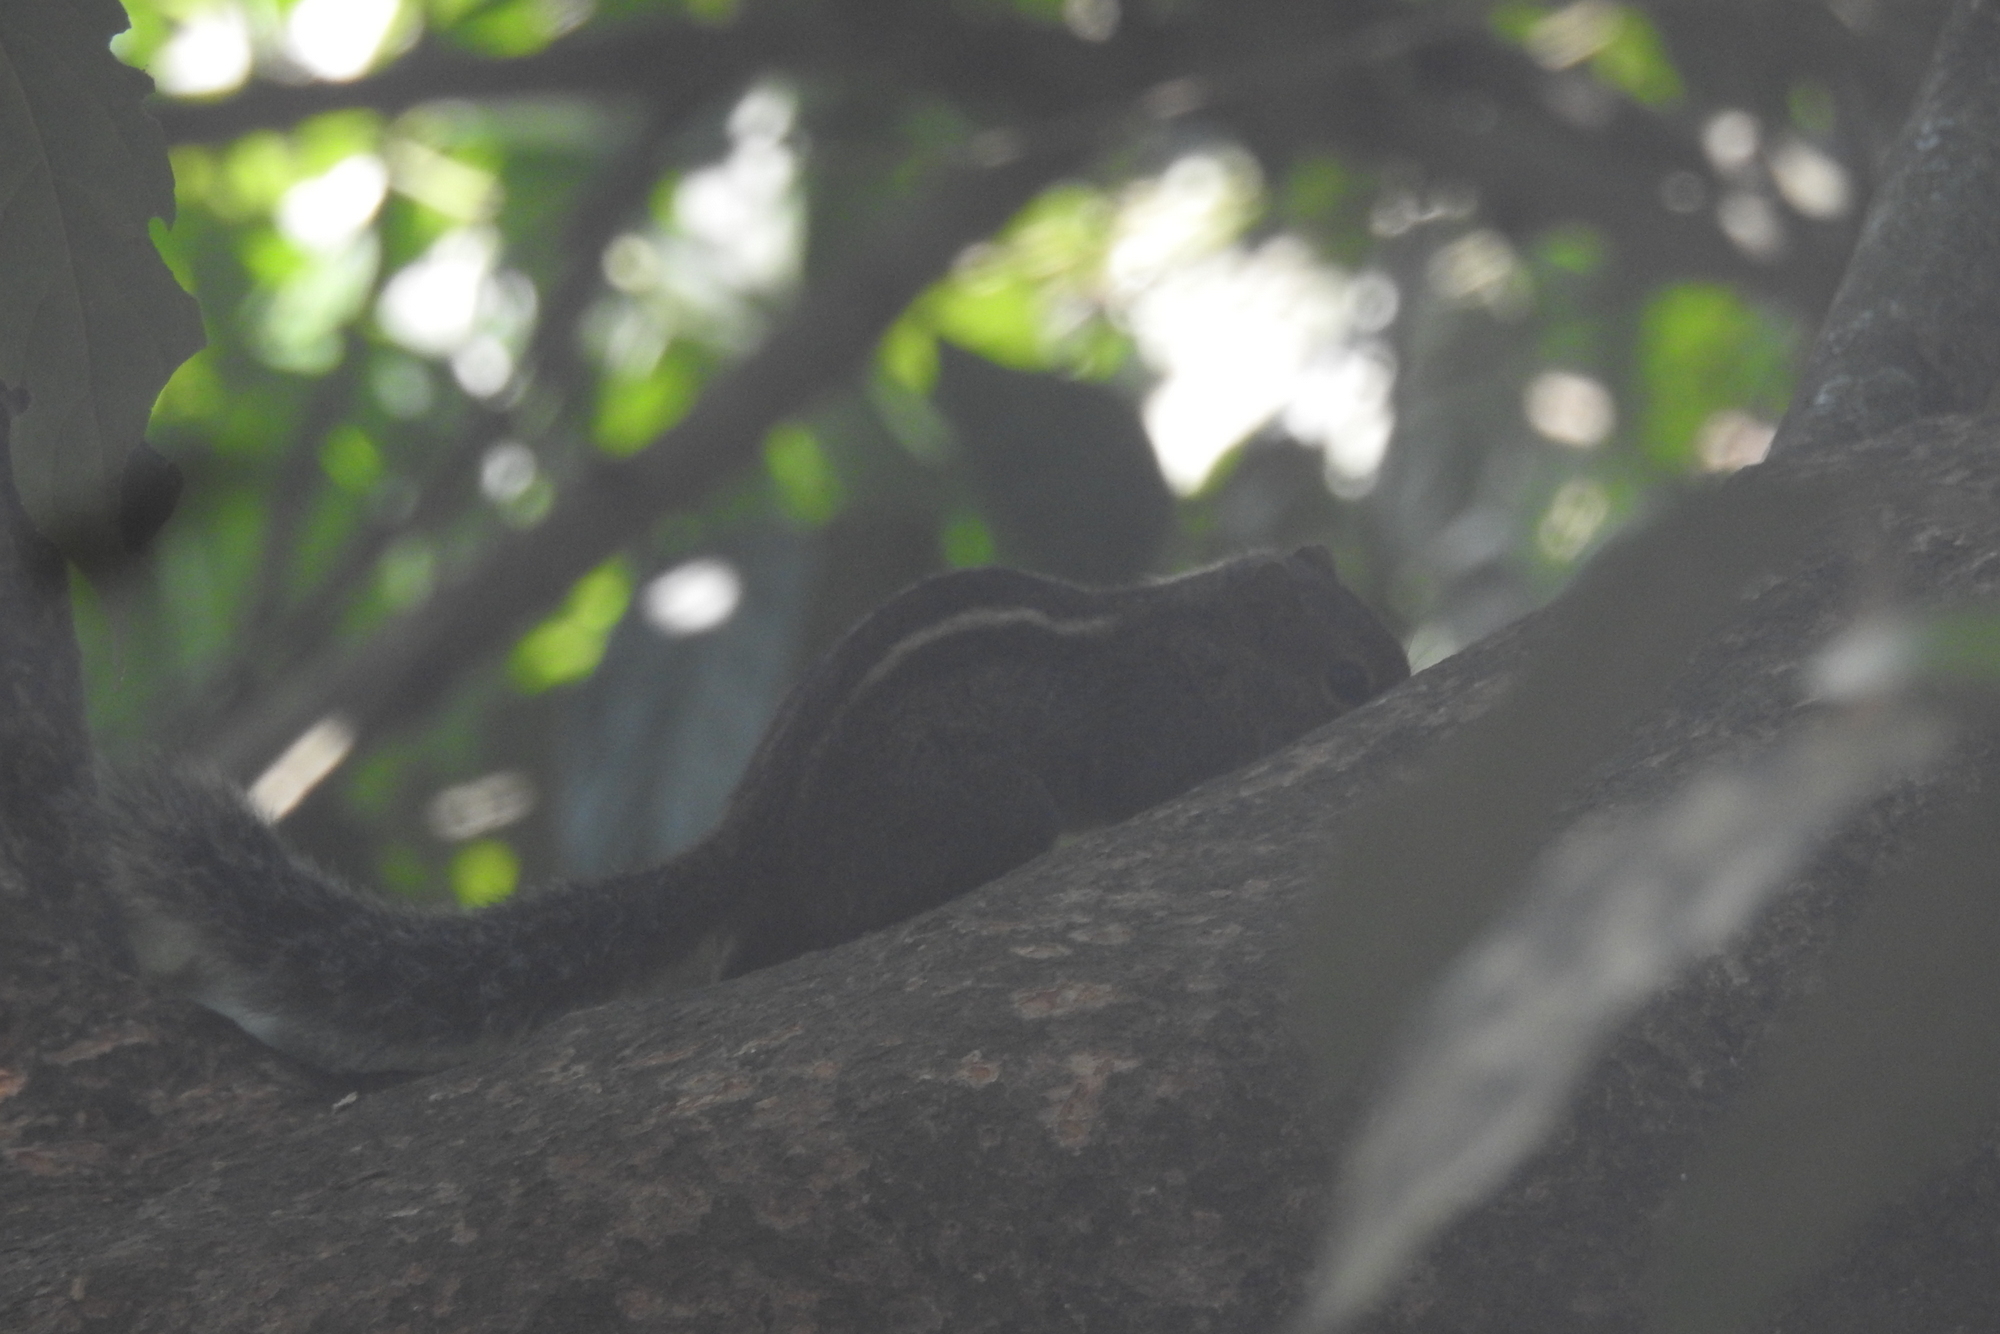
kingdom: Animalia
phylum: Chordata
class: Mammalia
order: Rodentia
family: Sciuridae
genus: Funambulus
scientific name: Funambulus tristriatus
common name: Jungle palm squirrel
